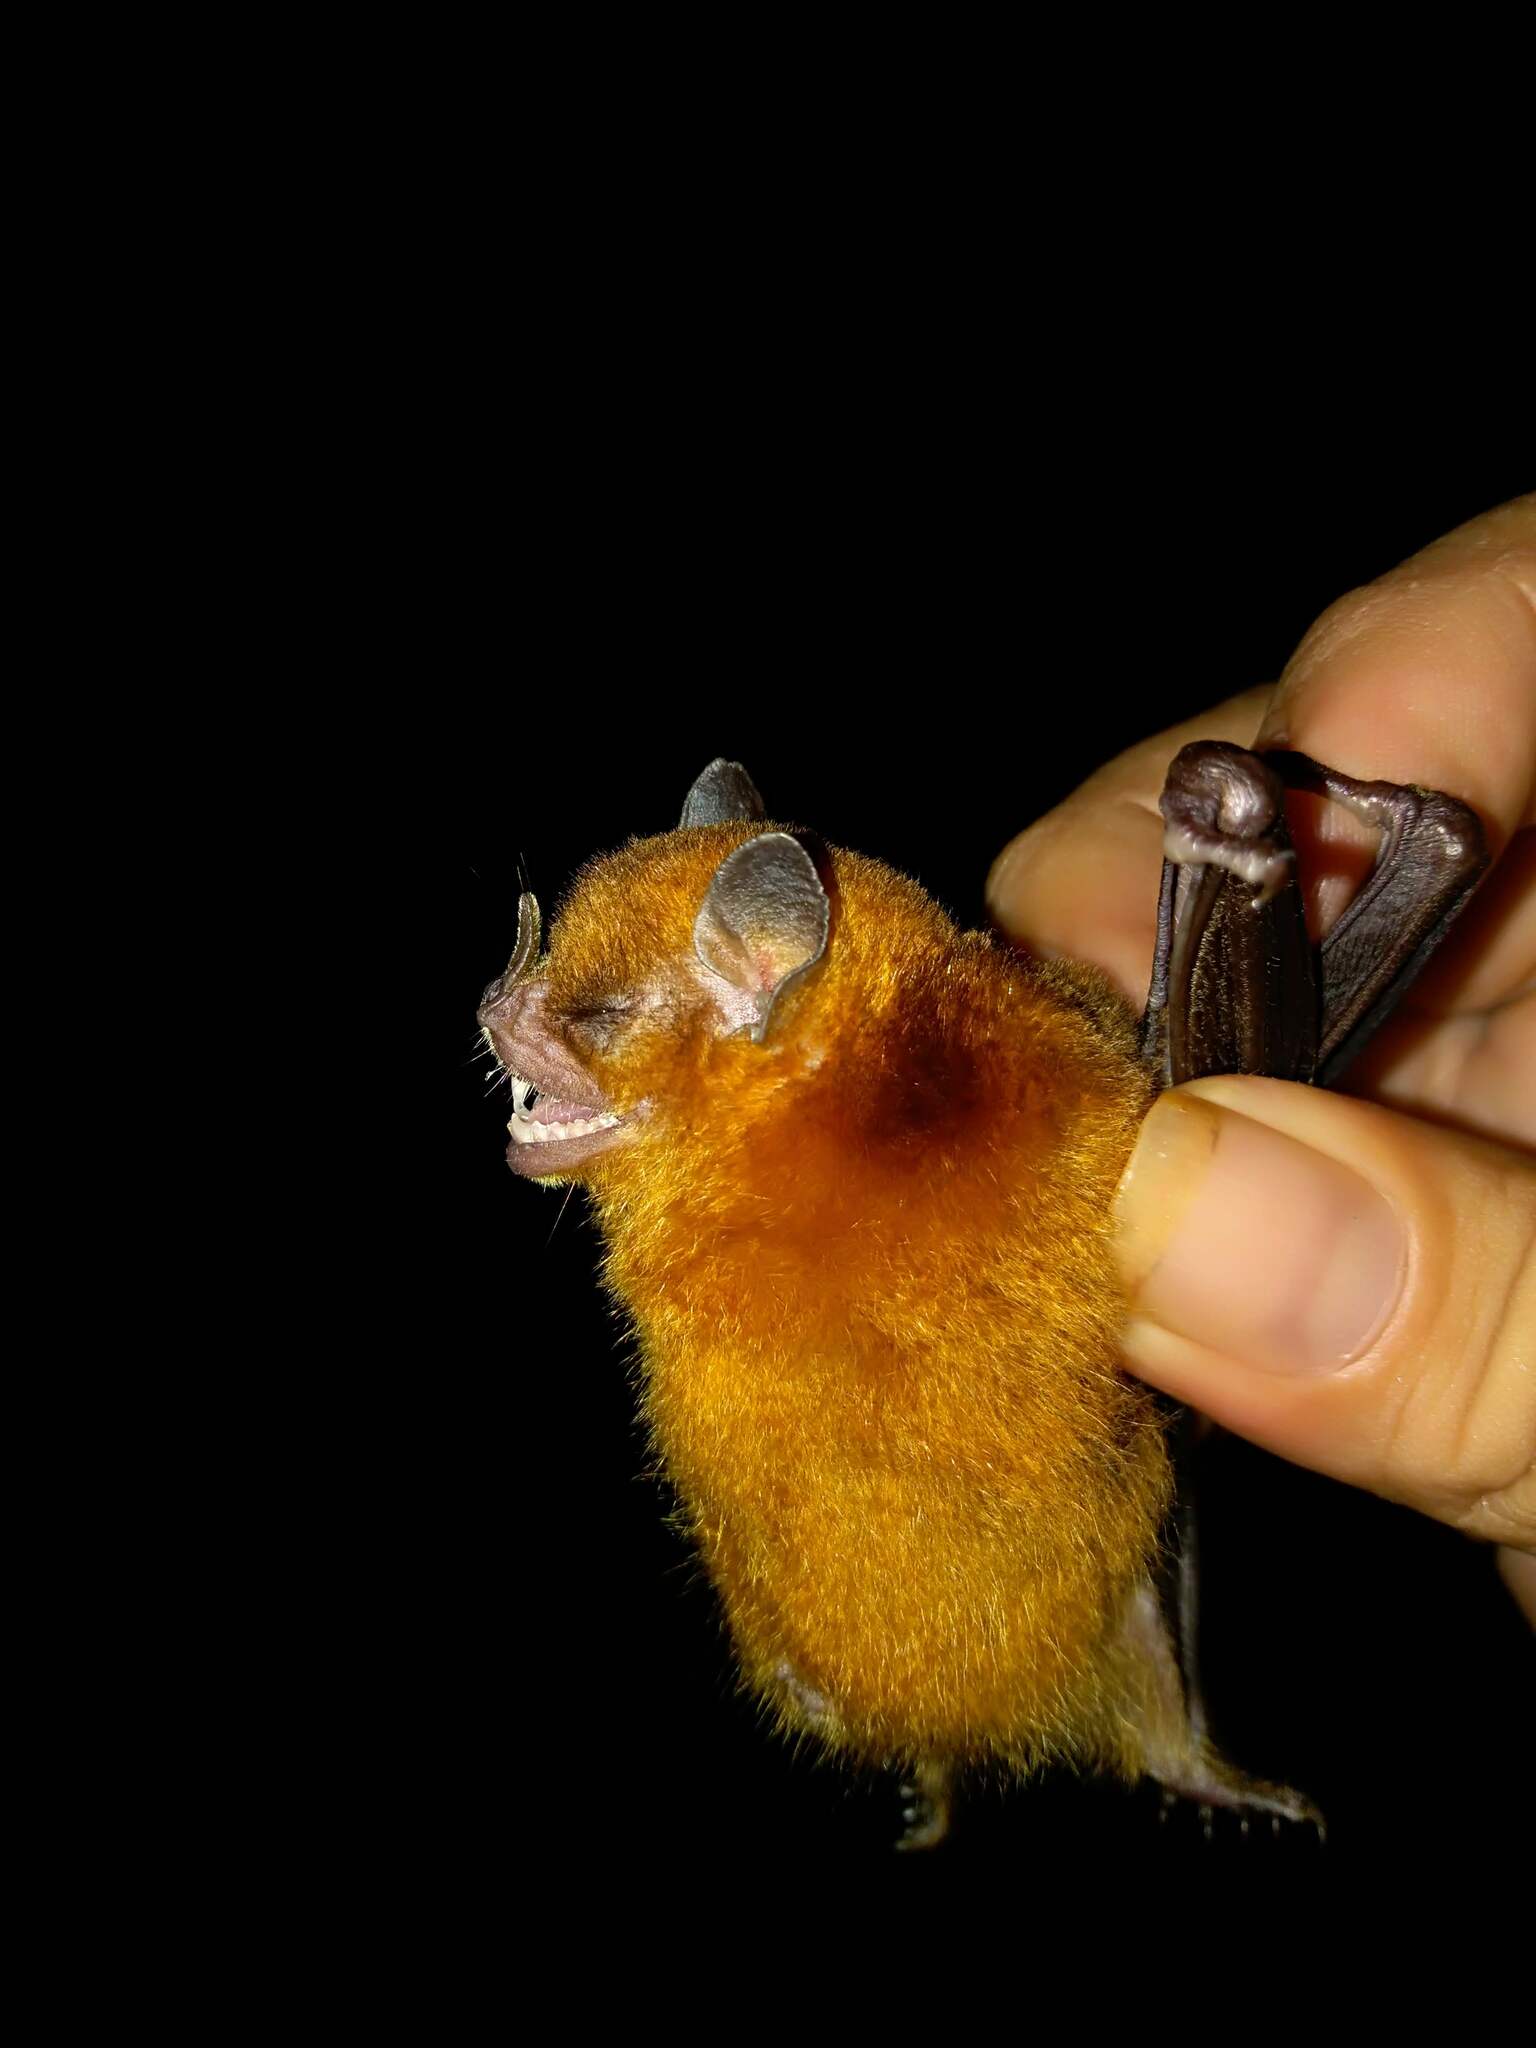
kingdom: Animalia
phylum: Chordata
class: Mammalia
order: Chiroptera
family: Phyllostomidae
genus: Sturnira
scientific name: Sturnira parvidens
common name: Northern yellow-shouldered bat
